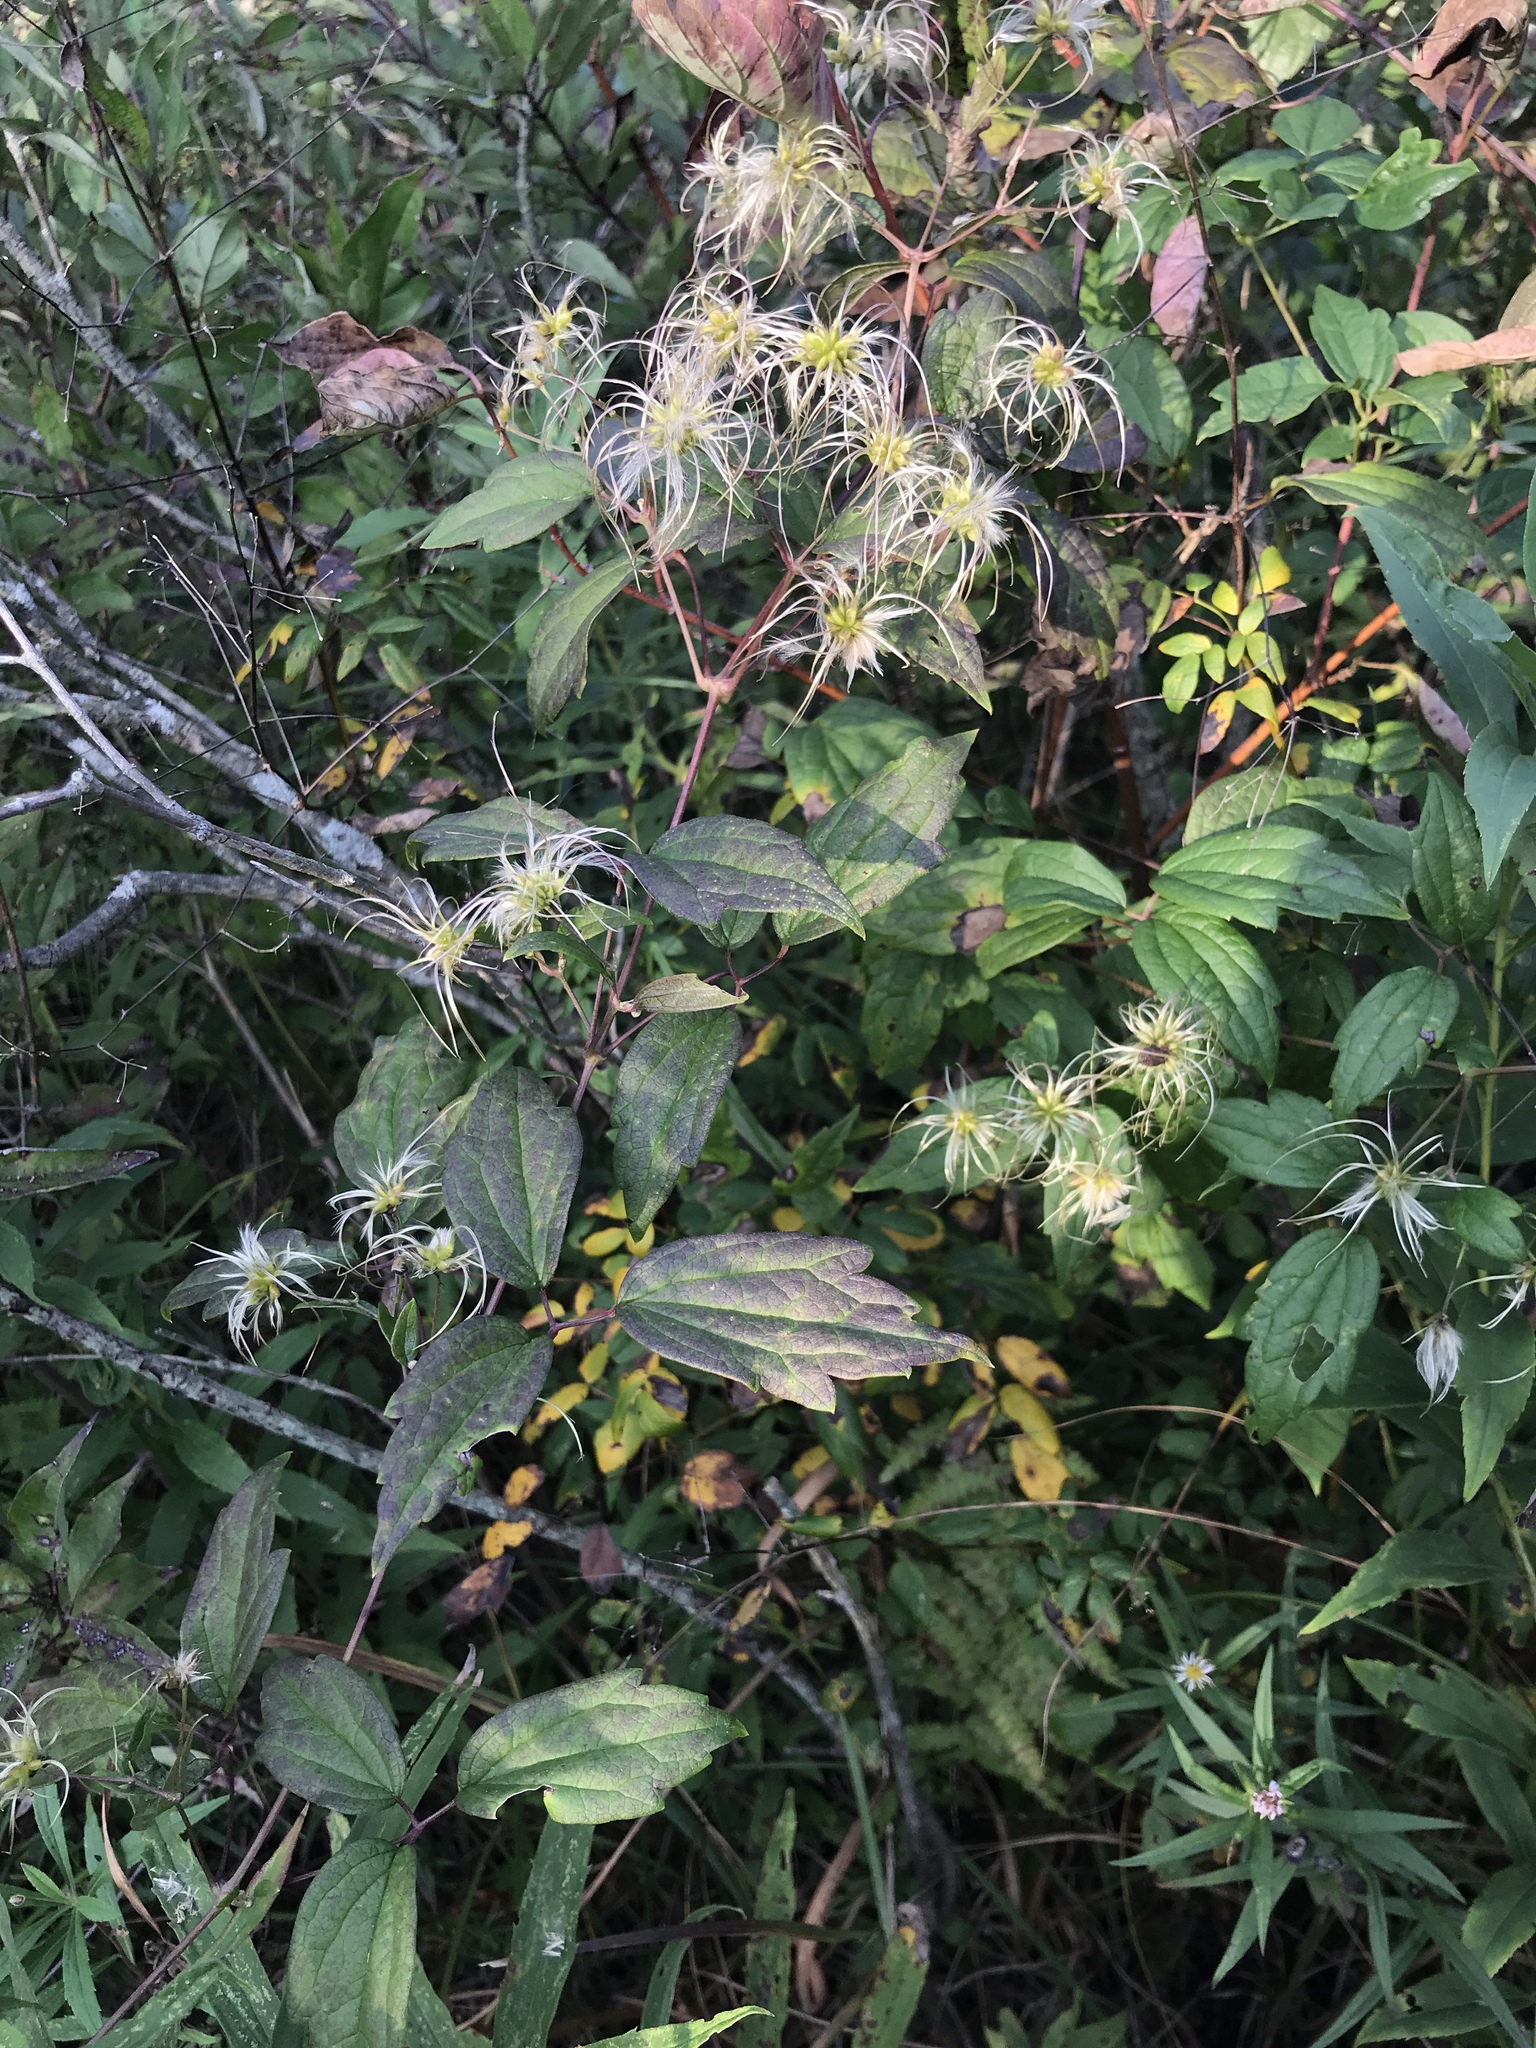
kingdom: Plantae
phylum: Tracheophyta
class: Magnoliopsida
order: Ranunculales
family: Ranunculaceae
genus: Clematis
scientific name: Clematis virginiana
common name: Virgin's-bower
